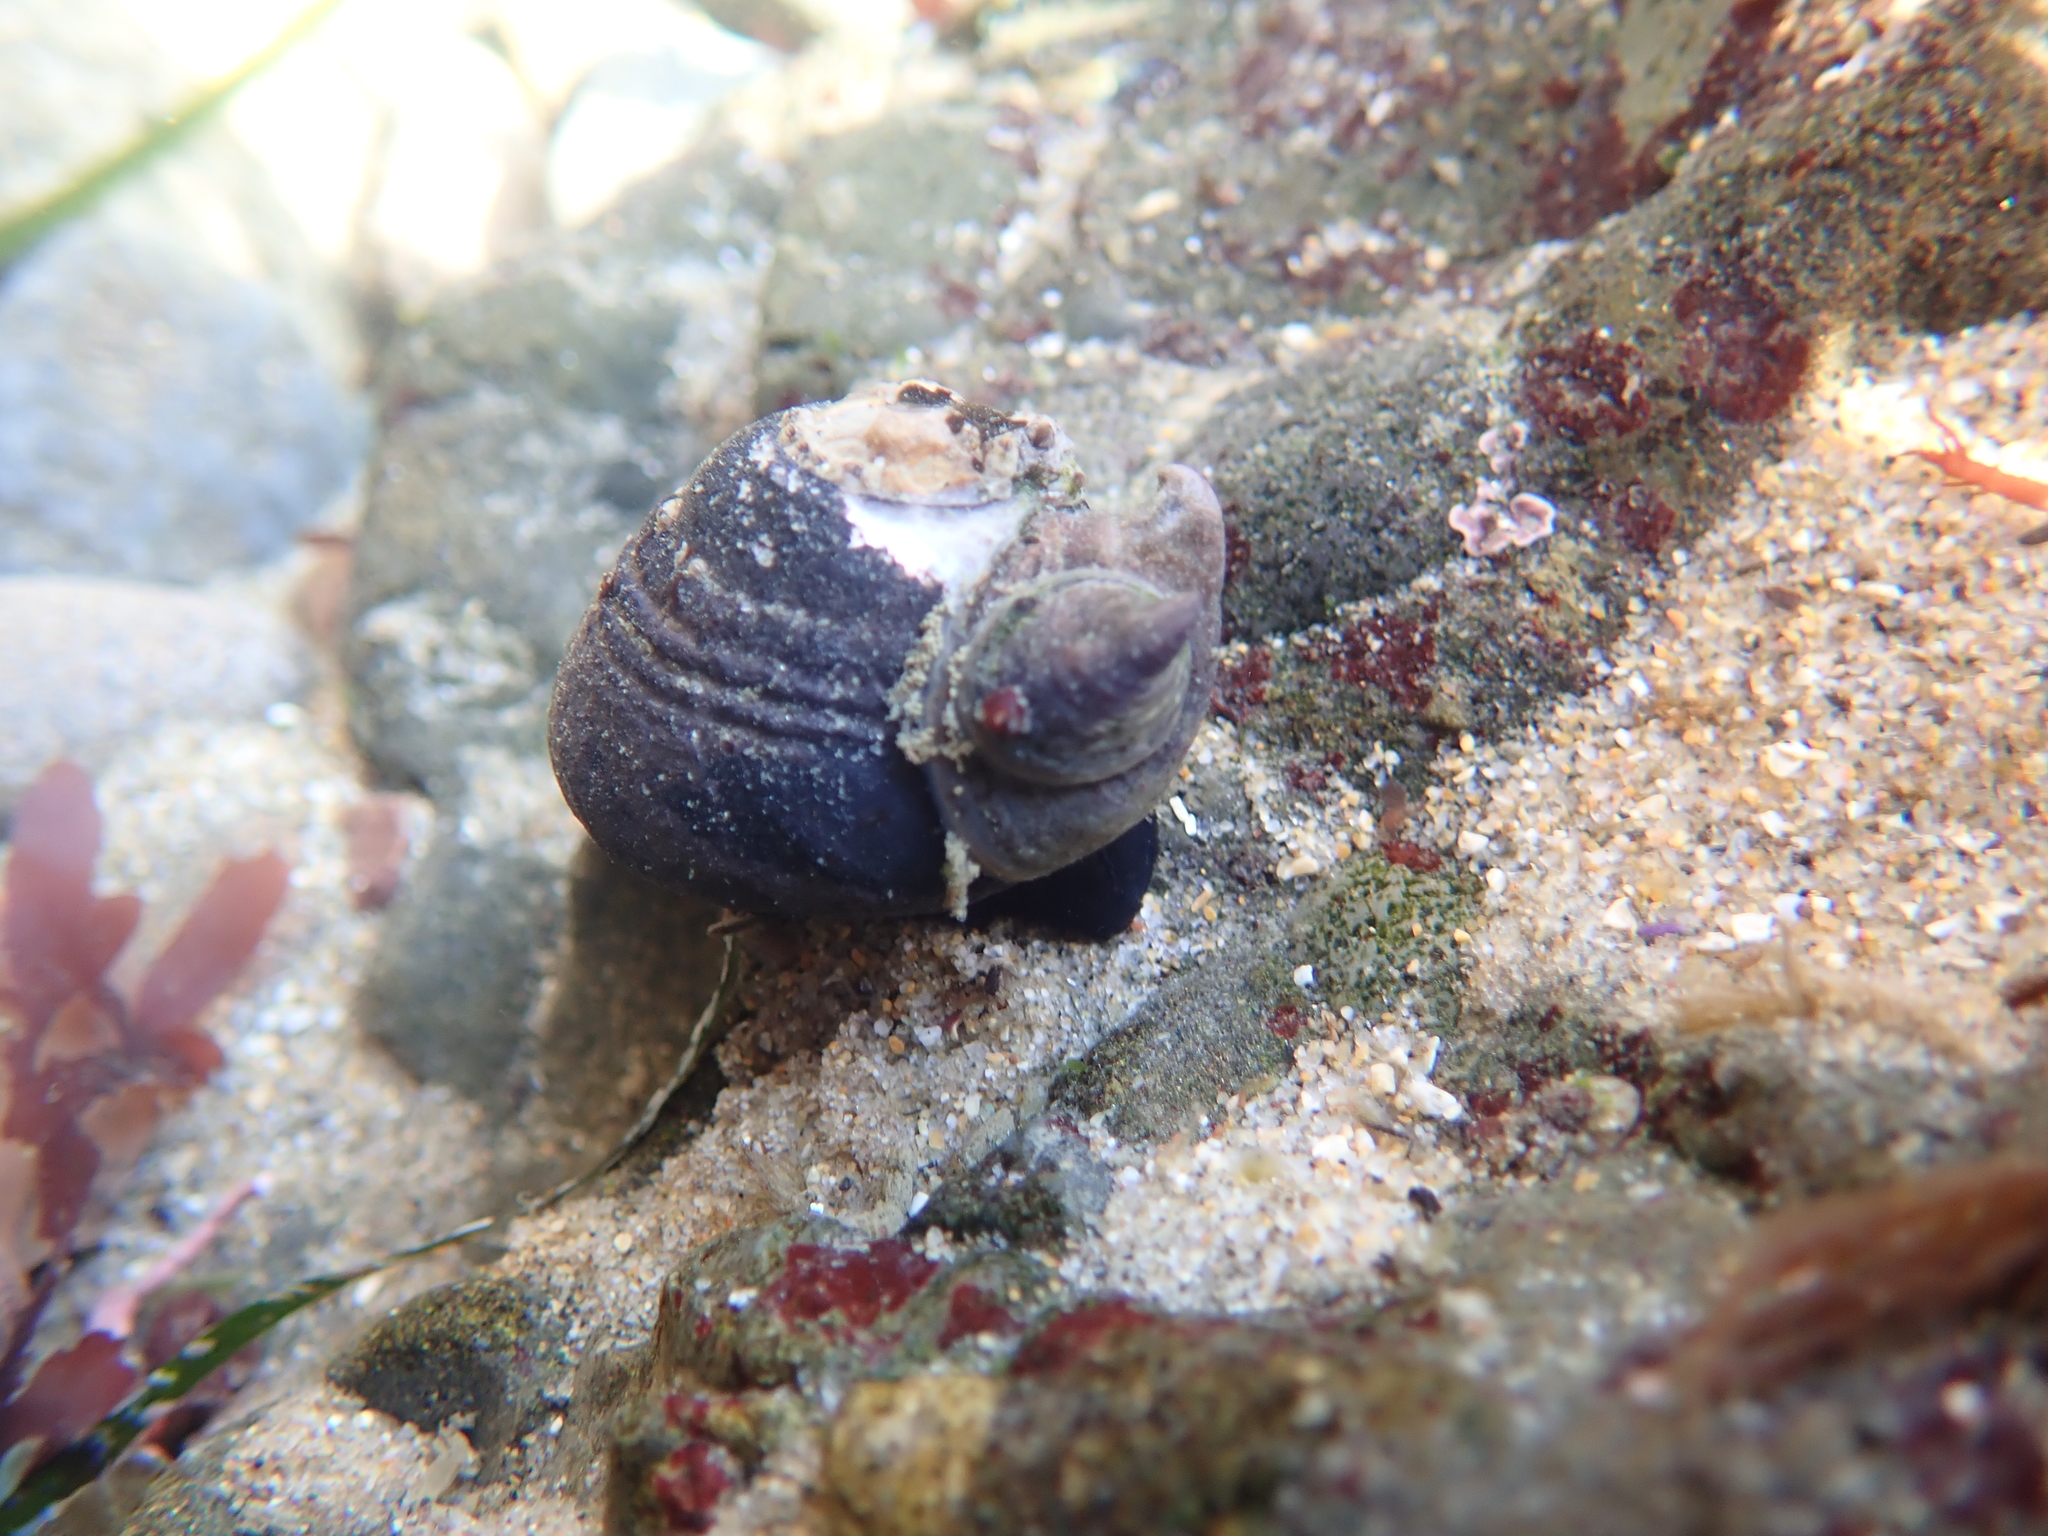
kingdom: Animalia
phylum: Mollusca
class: Gastropoda
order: Littorinimorpha
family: Calyptraeidae
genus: Crepidula
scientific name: Crepidula adunca
